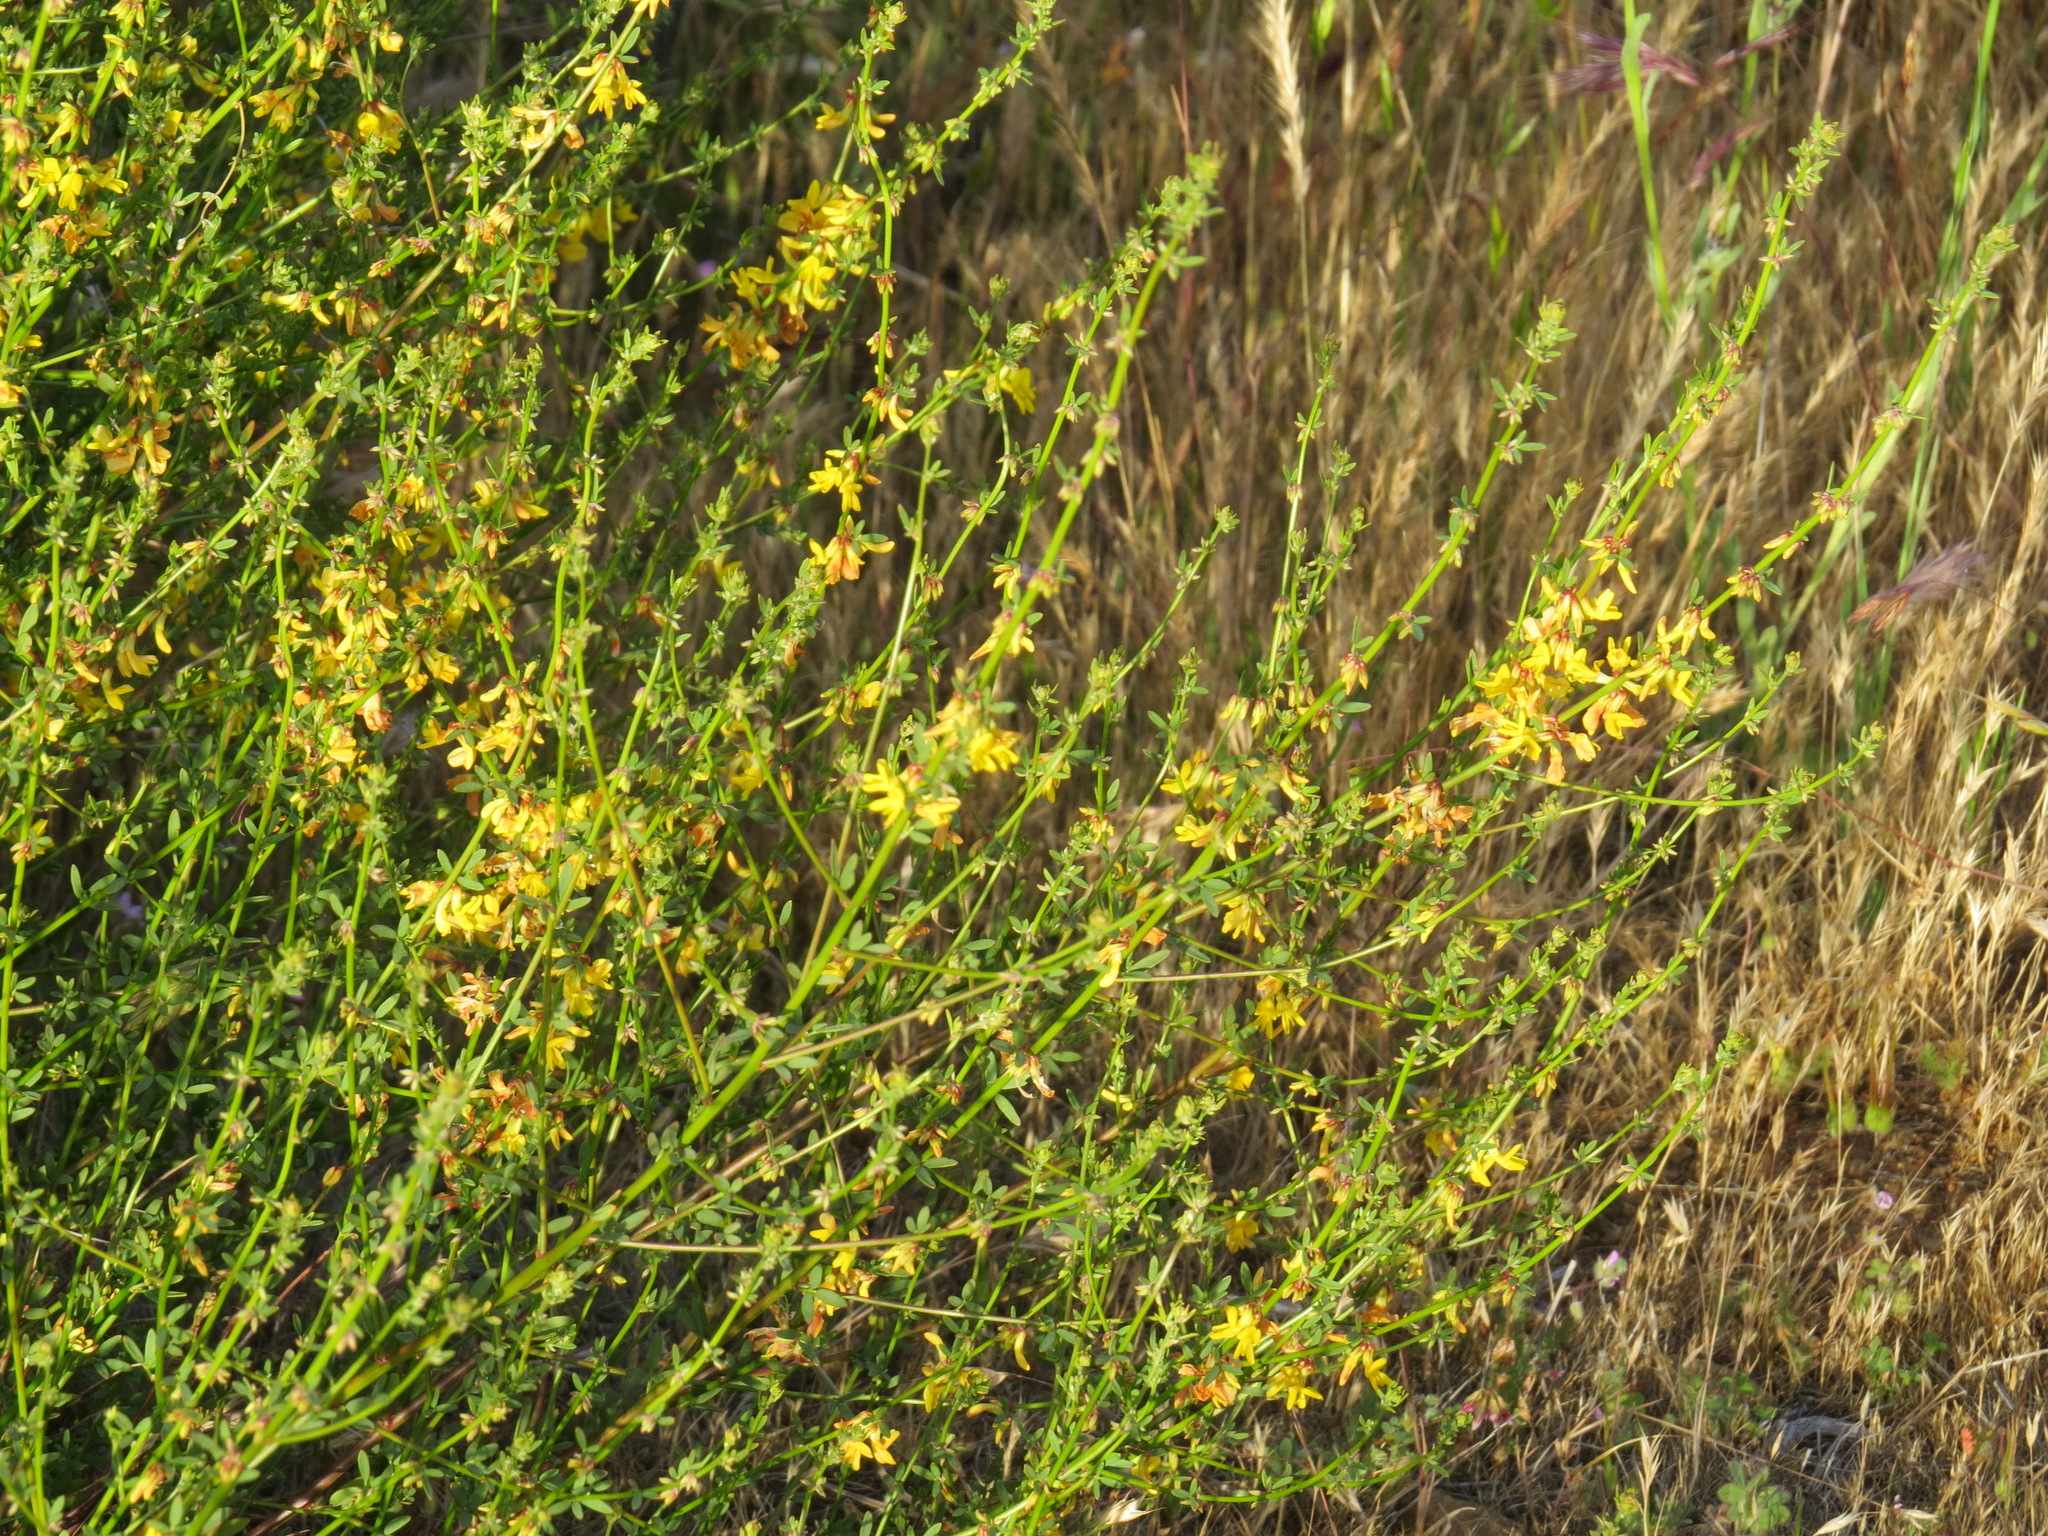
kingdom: Plantae
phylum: Tracheophyta
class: Magnoliopsida
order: Fabales
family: Fabaceae
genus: Acmispon
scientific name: Acmispon glaber
